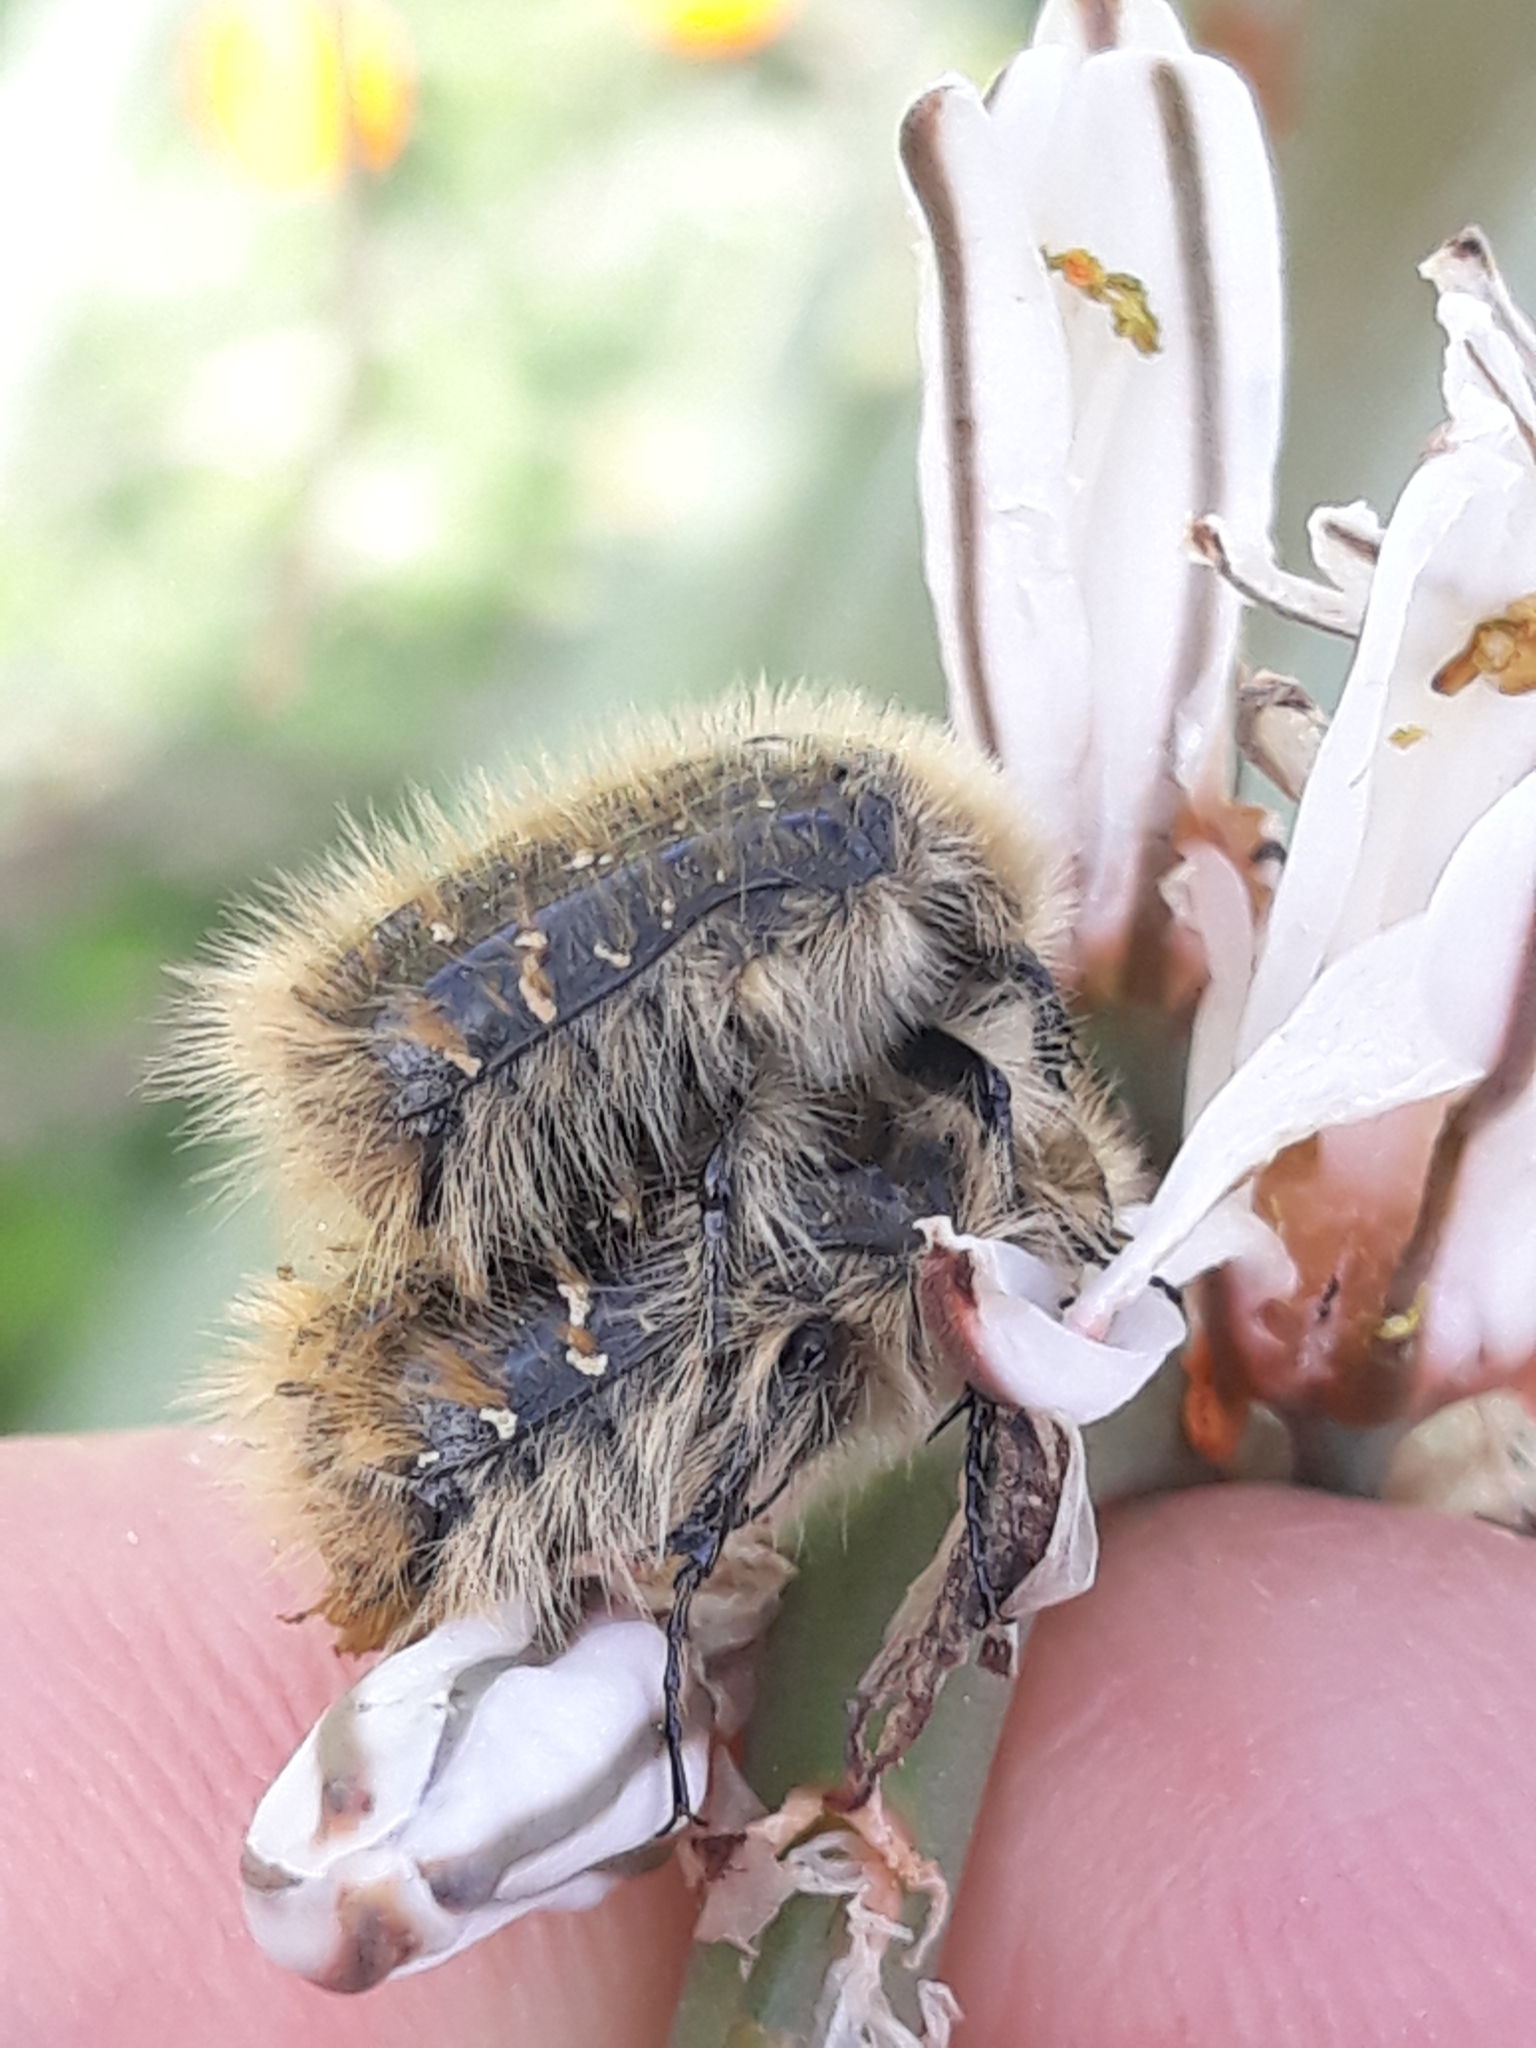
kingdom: Animalia
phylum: Arthropoda
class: Insecta
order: Coleoptera
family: Scarabaeidae
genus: Tropinota
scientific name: Tropinota squalida
